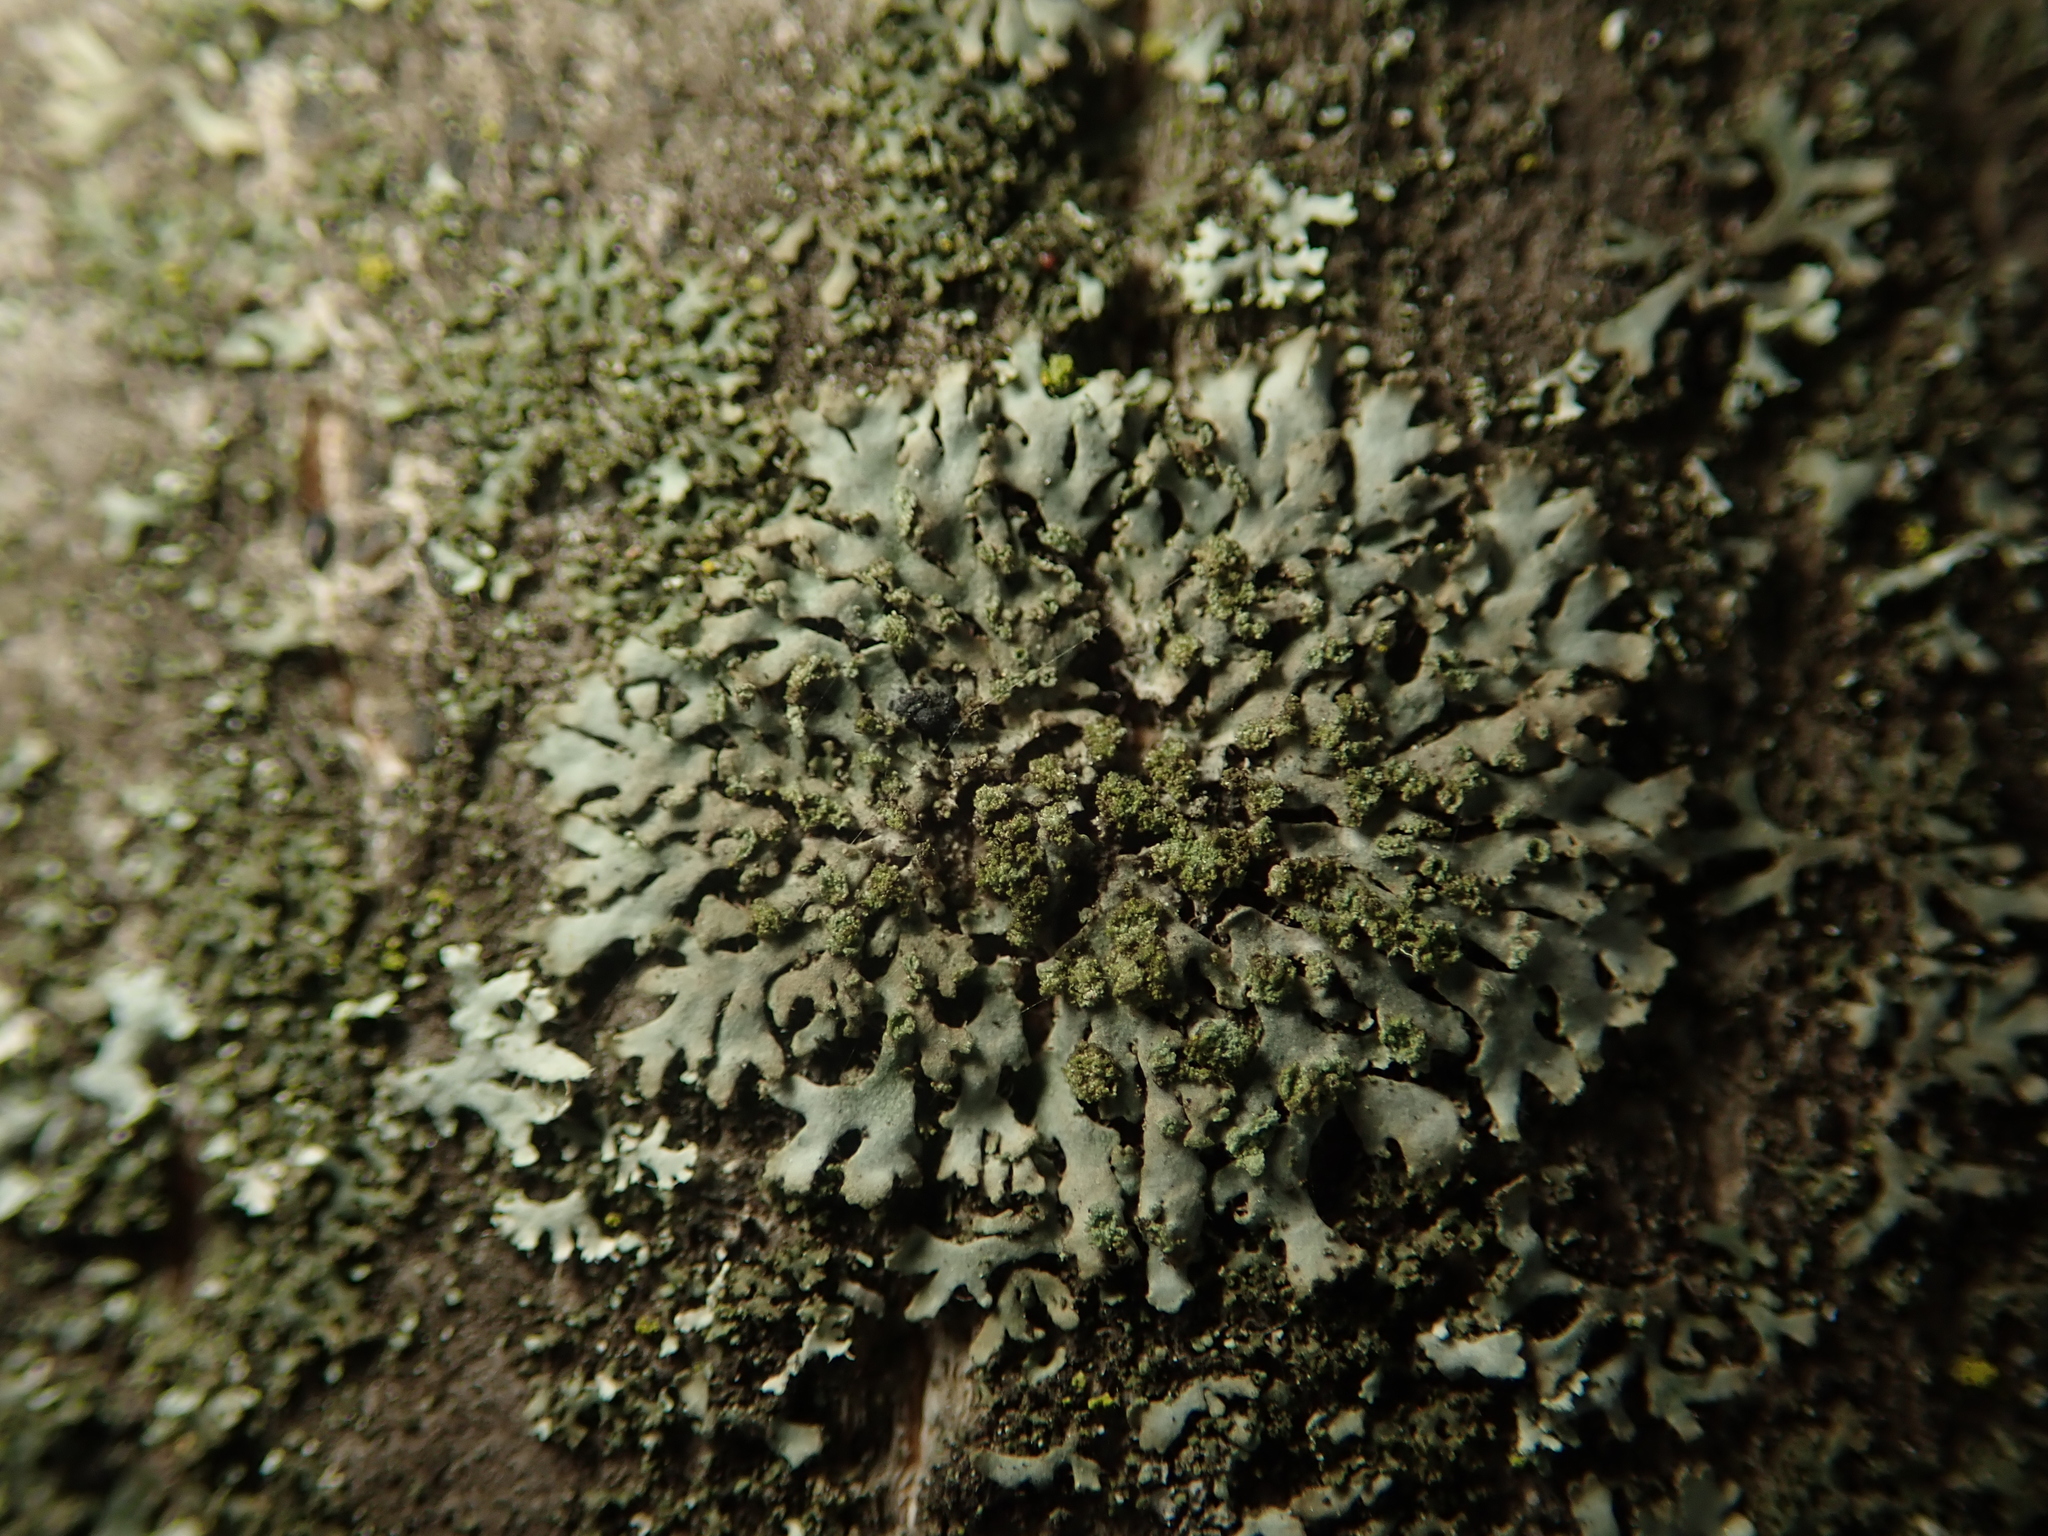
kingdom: Fungi
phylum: Ascomycota
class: Lecanoromycetes
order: Caliciales
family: Physciaceae
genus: Phaeophyscia
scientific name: Phaeophyscia orbicularis
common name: Mealy shadow lichen
